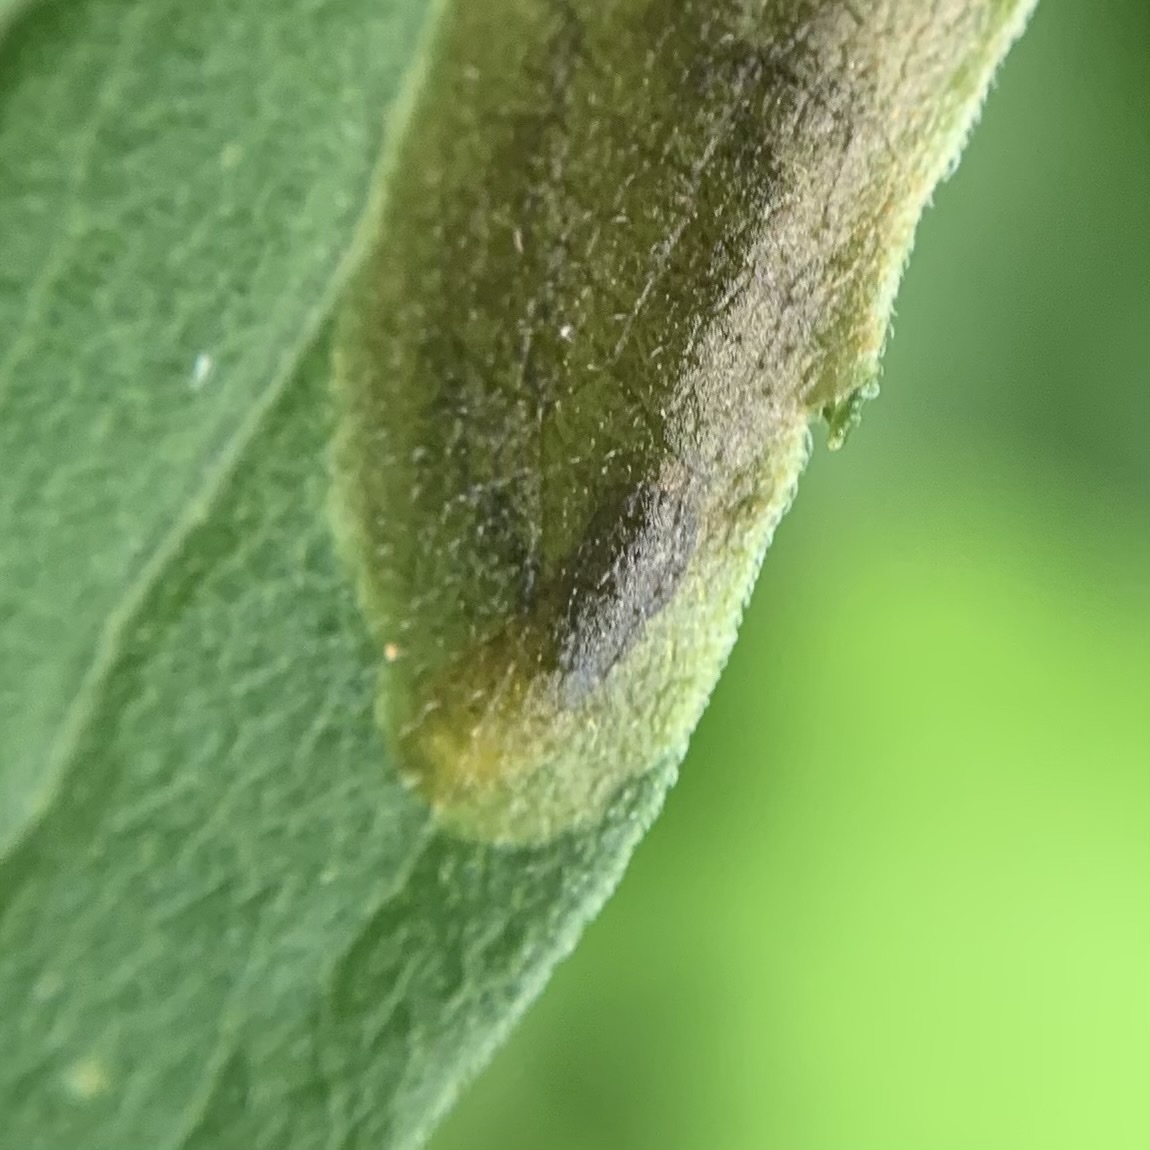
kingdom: Animalia
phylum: Arthropoda
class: Insecta
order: Diptera
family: Agromyzidae
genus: Nemorimyza
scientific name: Nemorimyza posticata
